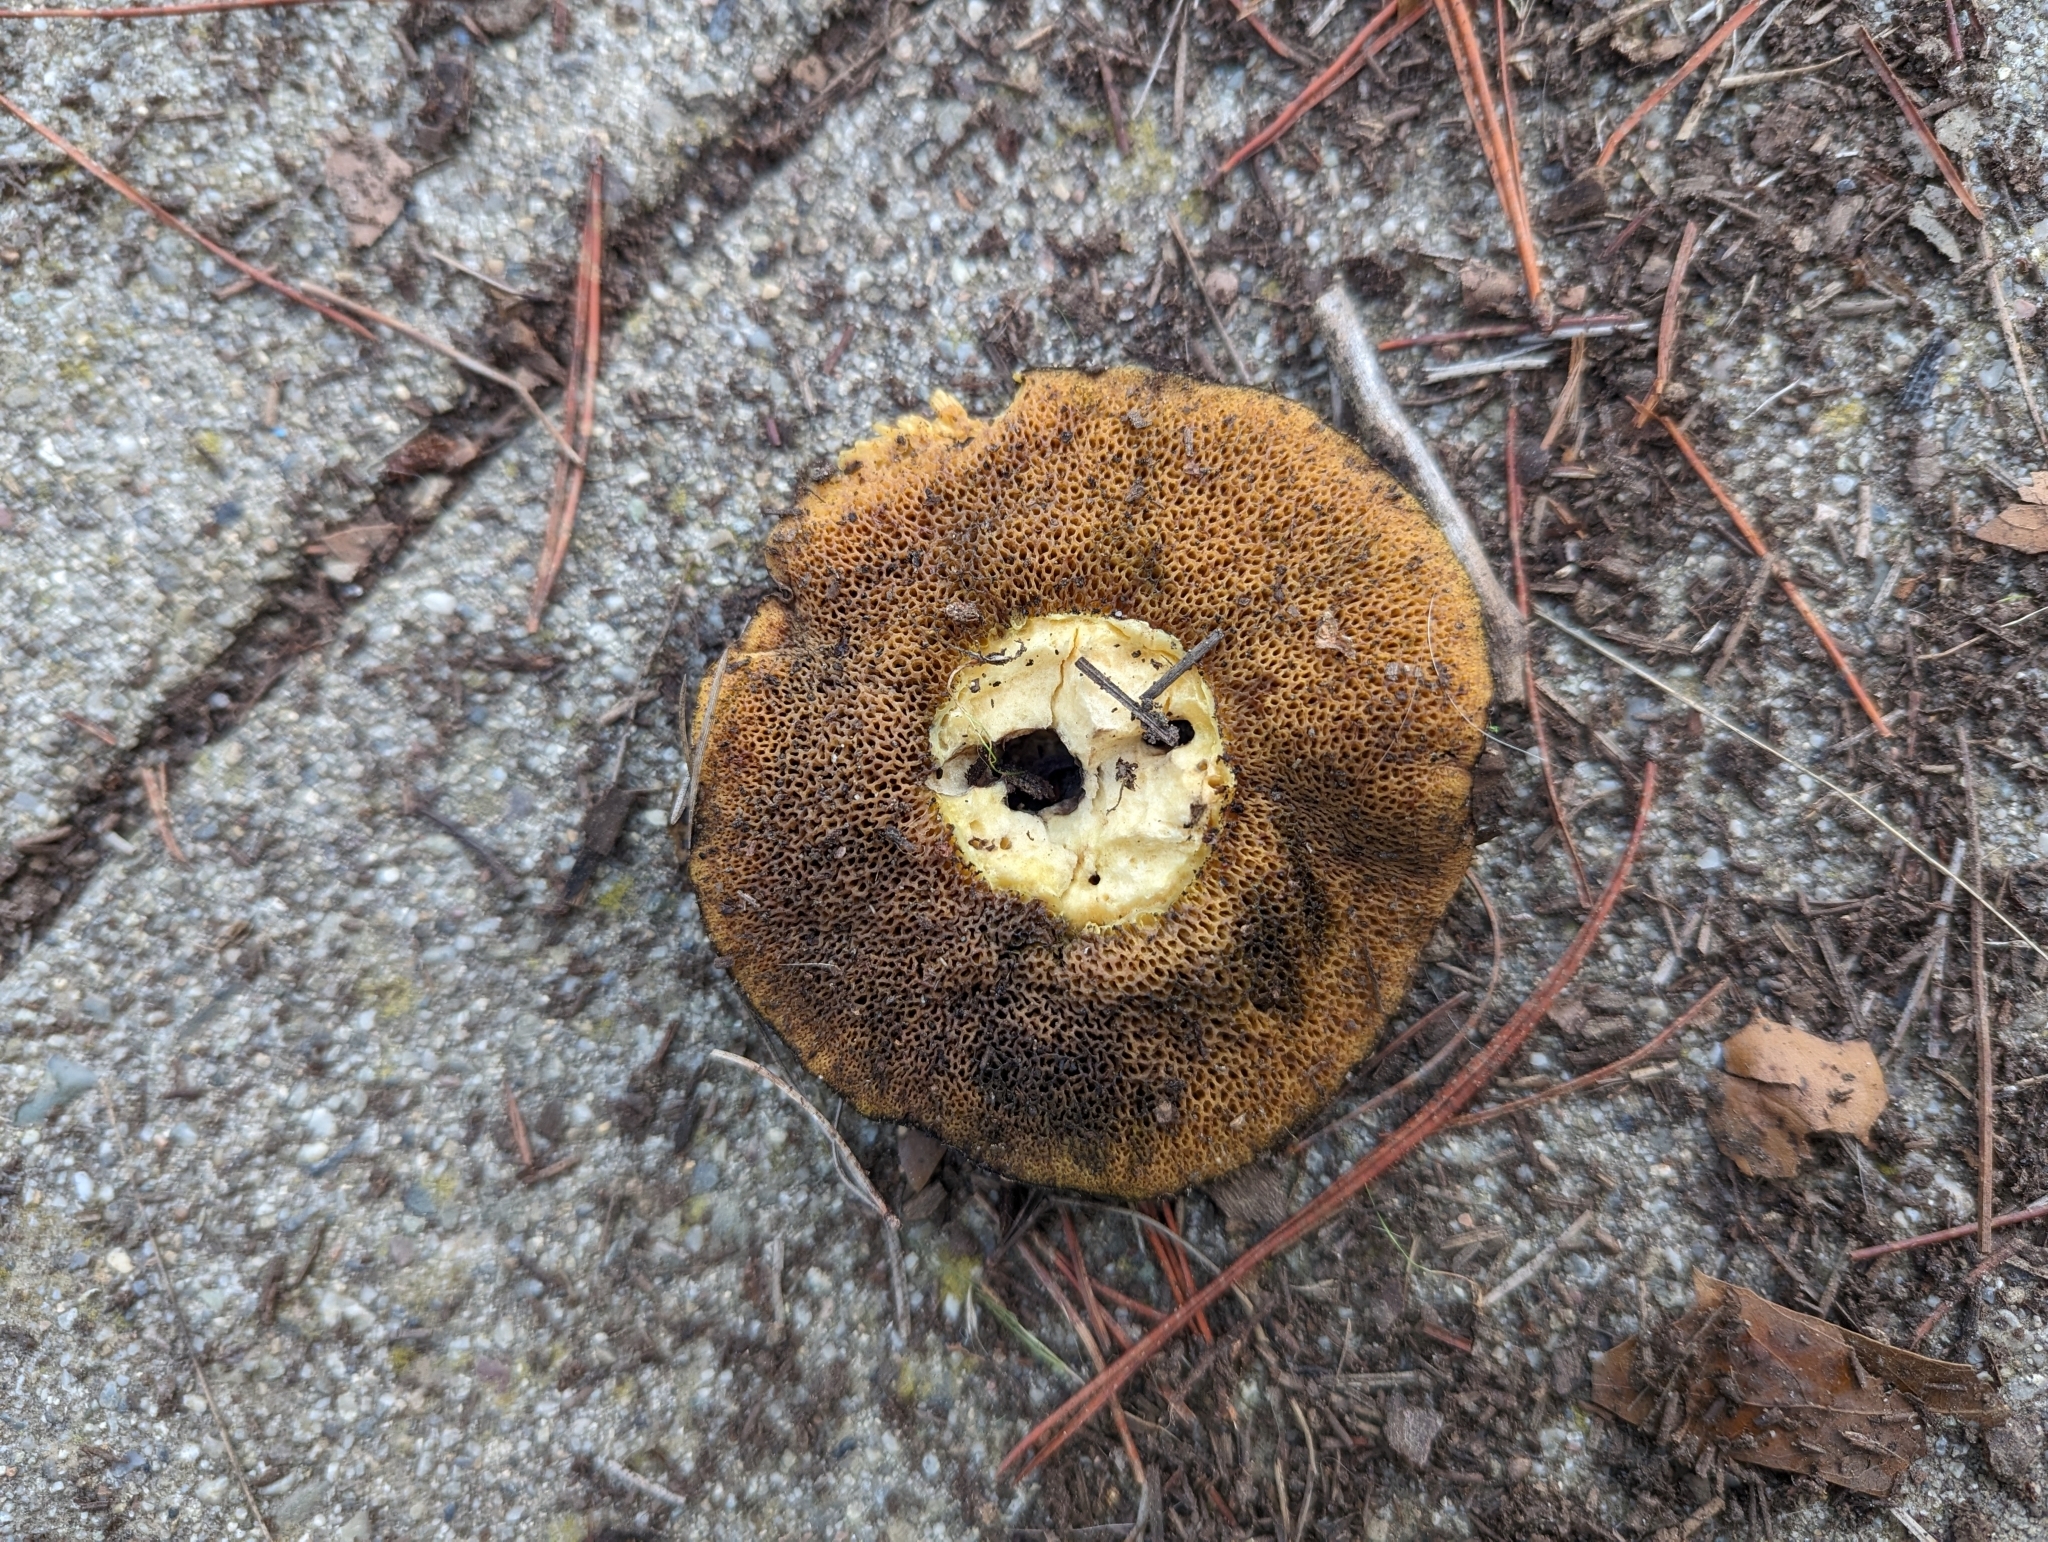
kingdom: Fungi
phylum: Basidiomycota
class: Agaricomycetes
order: Boletales
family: Suillaceae
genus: Suillus
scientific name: Suillus fuscotomentosus
